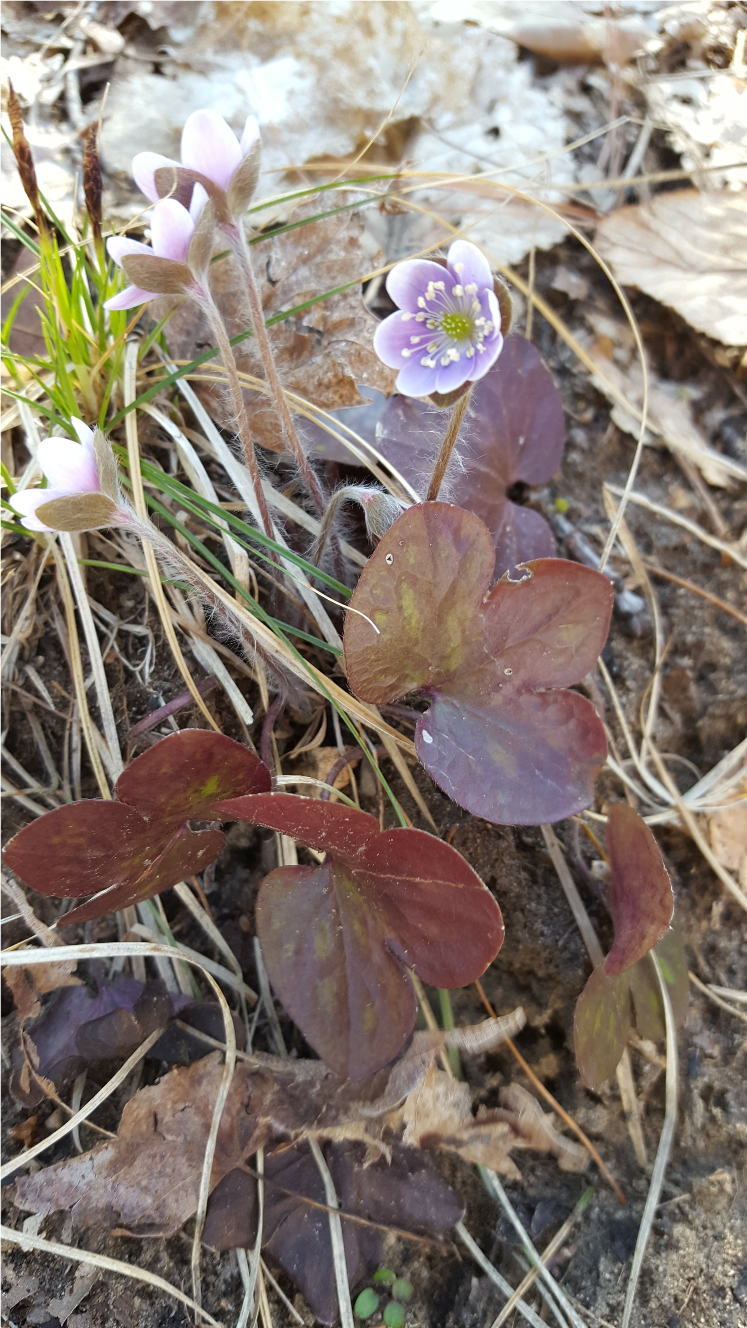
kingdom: Plantae
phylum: Tracheophyta
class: Magnoliopsida
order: Ranunculales
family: Ranunculaceae
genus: Hepatica
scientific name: Hepatica americana
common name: American hepatica
